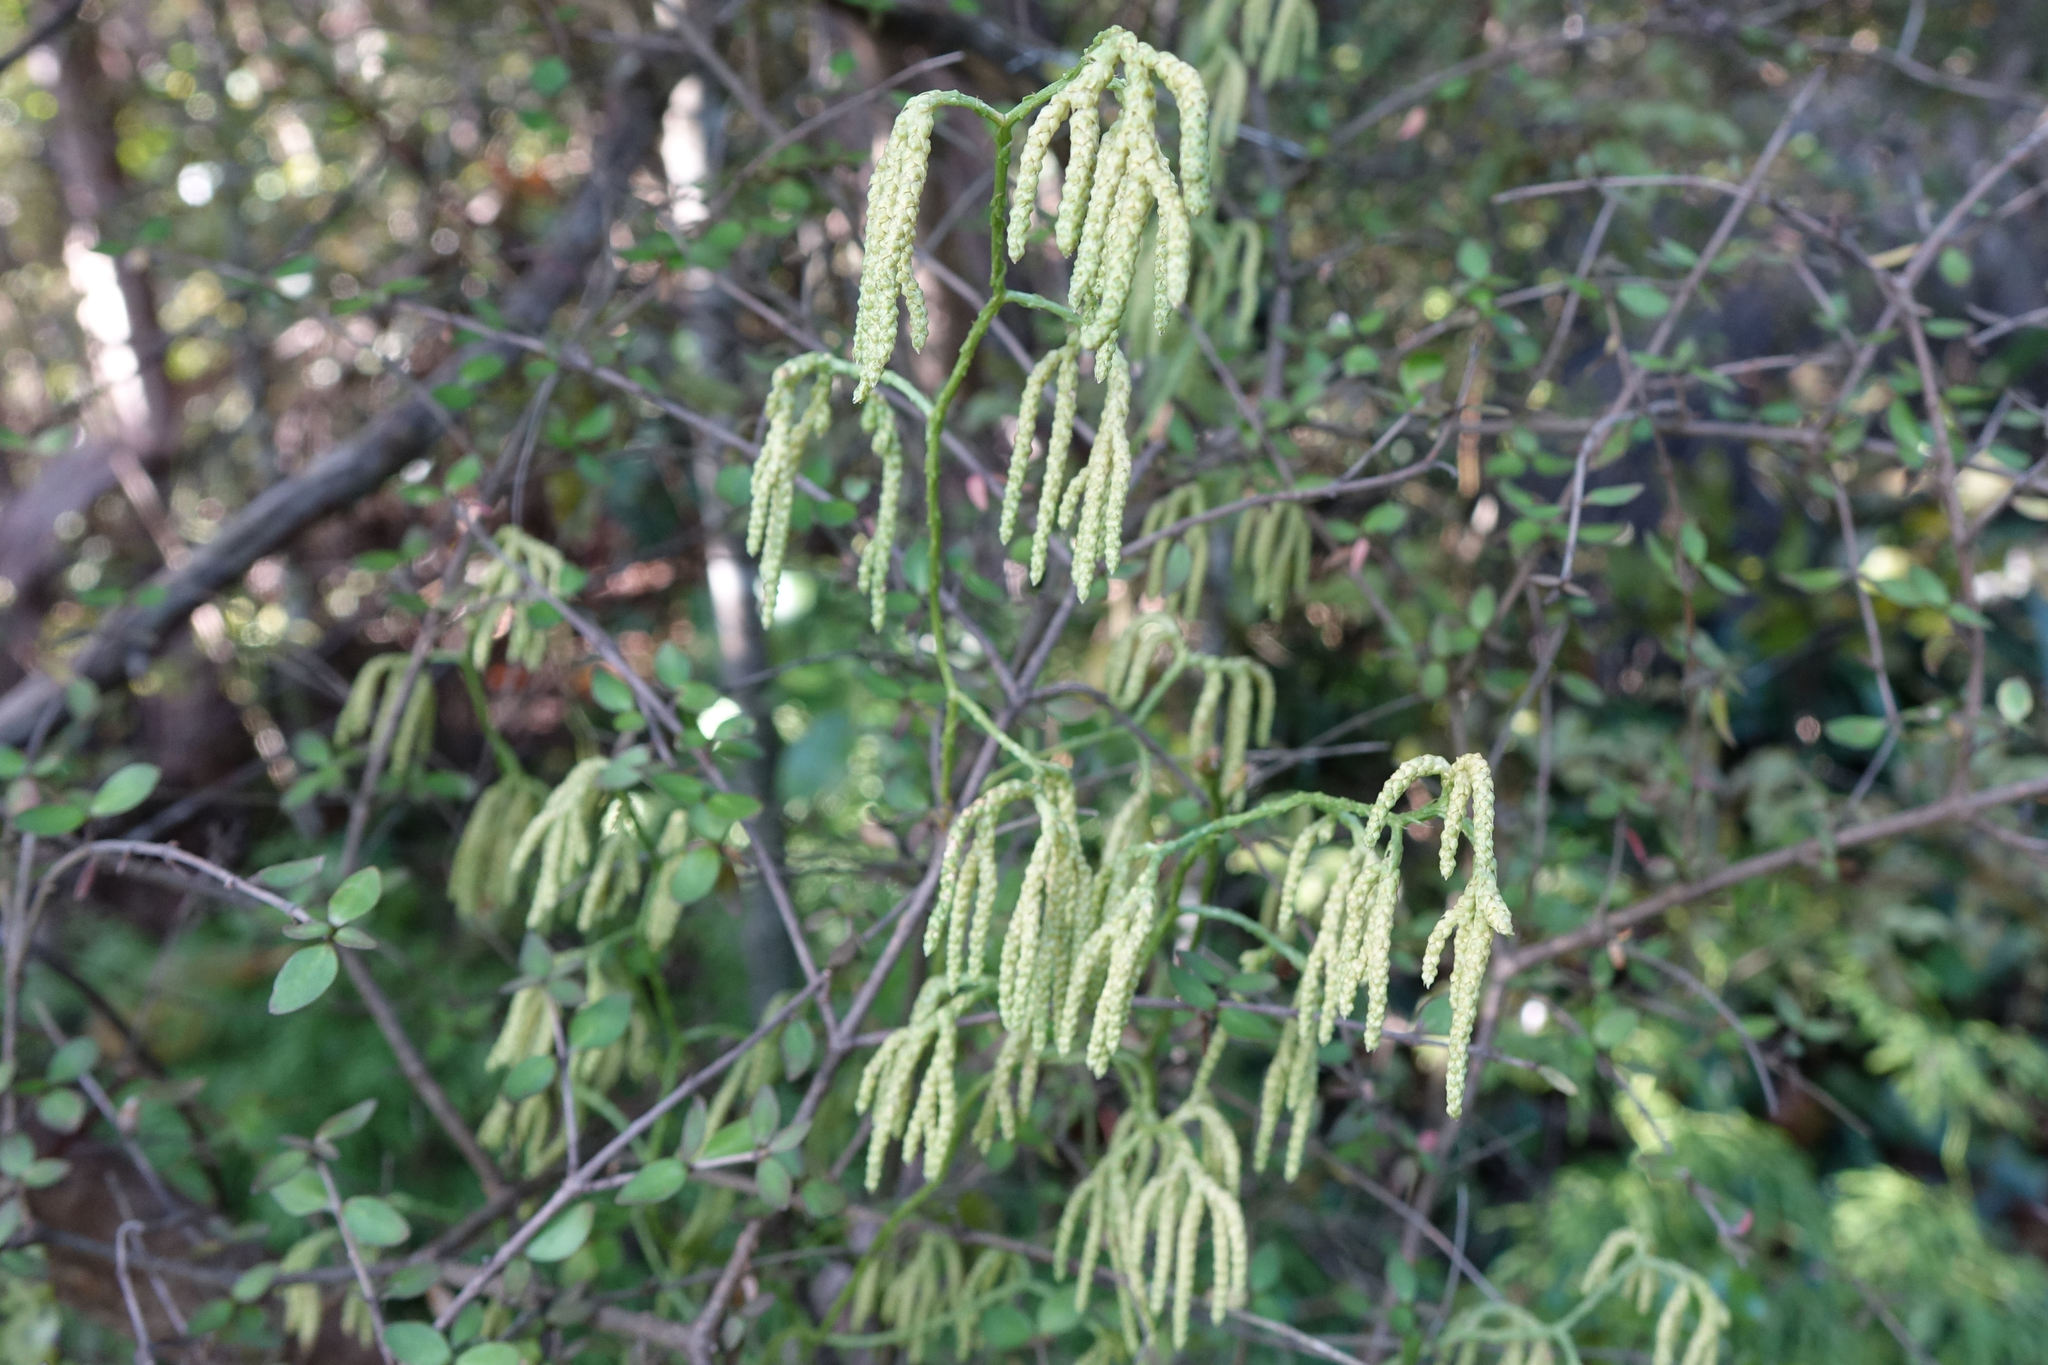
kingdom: Plantae
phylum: Tracheophyta
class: Lycopodiopsida
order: Lycopodiales
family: Lycopodiaceae
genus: Lycopodium
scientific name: Lycopodium volubile
